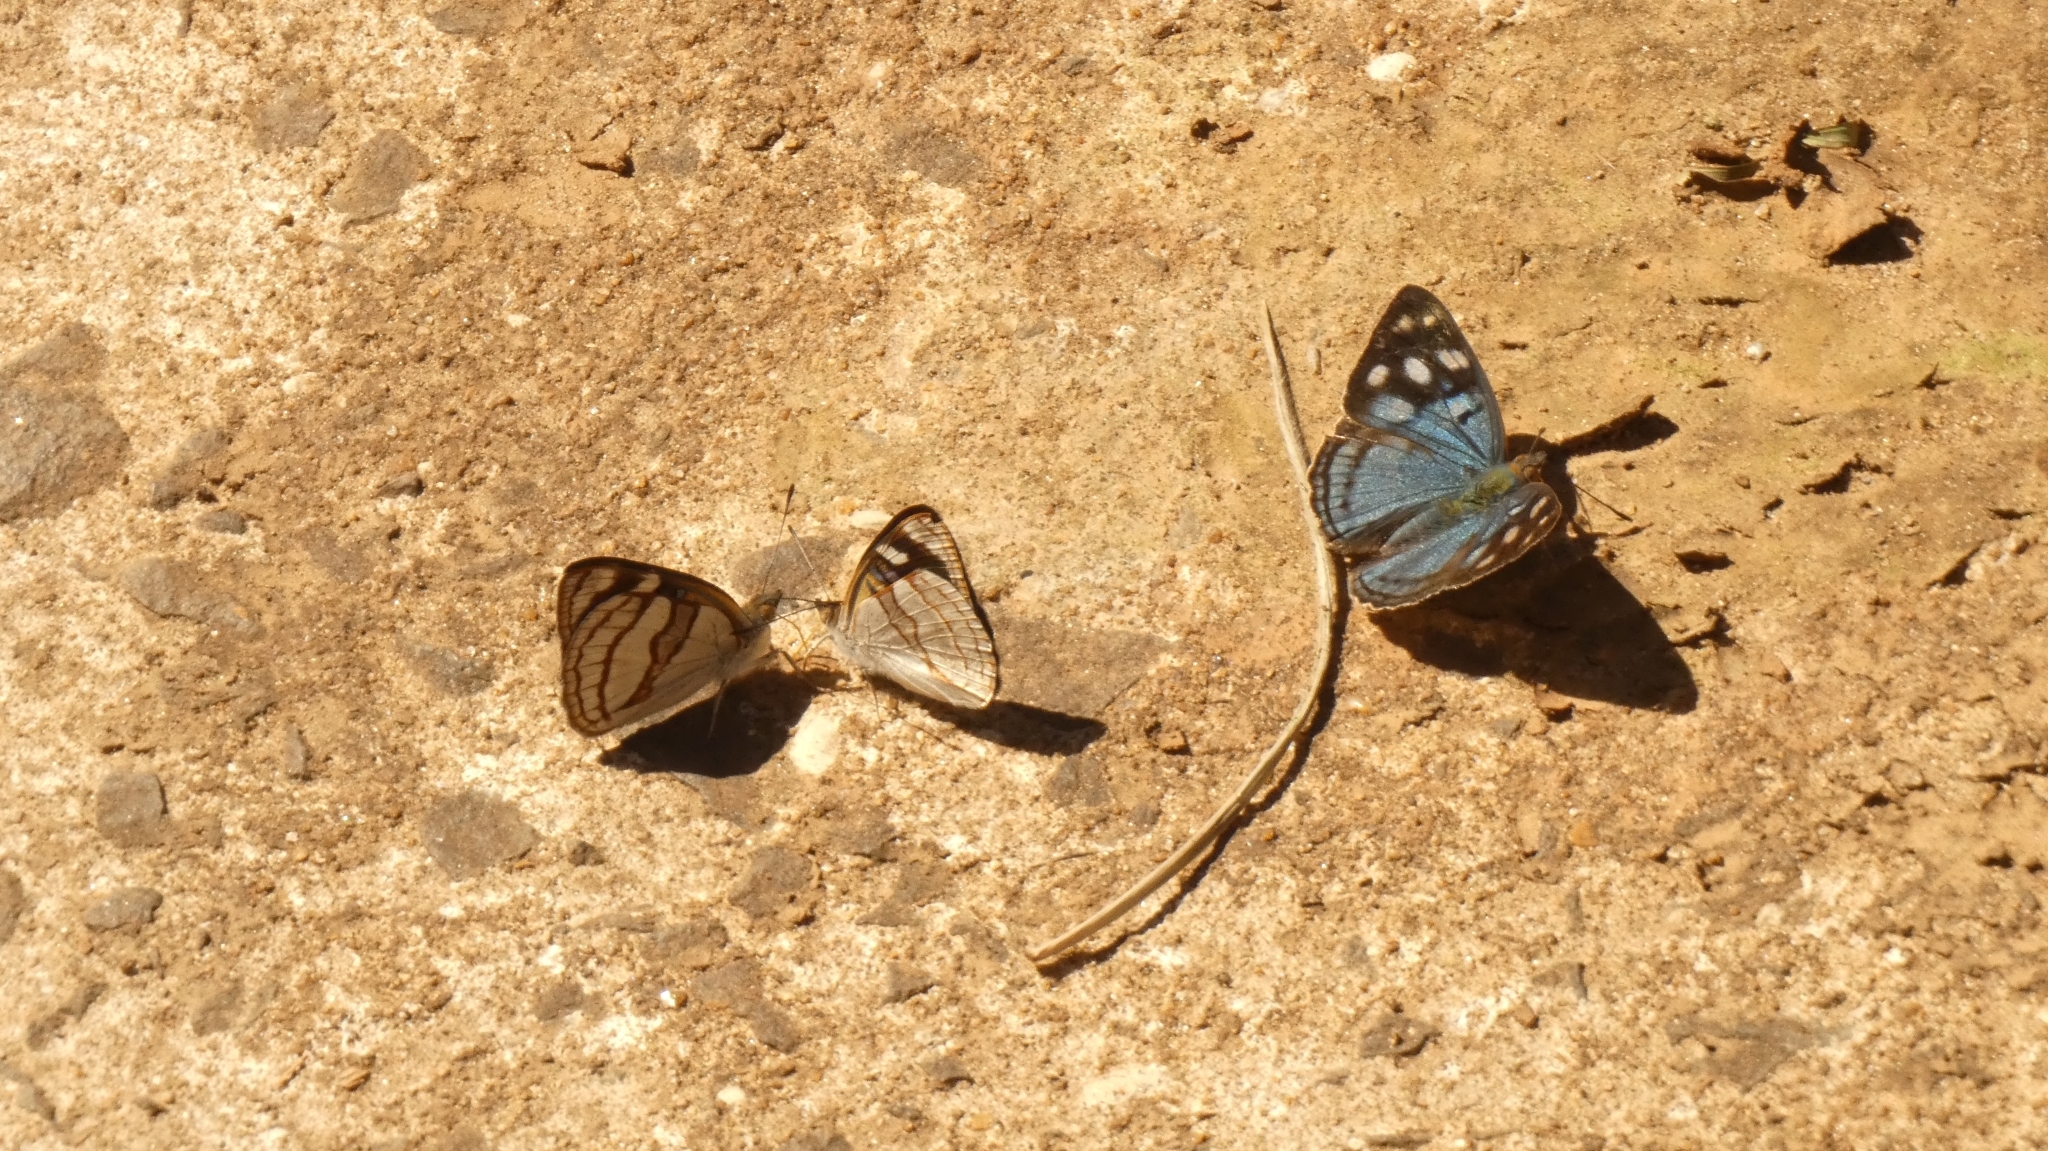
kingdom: Animalia
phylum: Arthropoda
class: Insecta
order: Lepidoptera
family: Nymphalidae
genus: Dynamine
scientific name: Dynamine tithia
